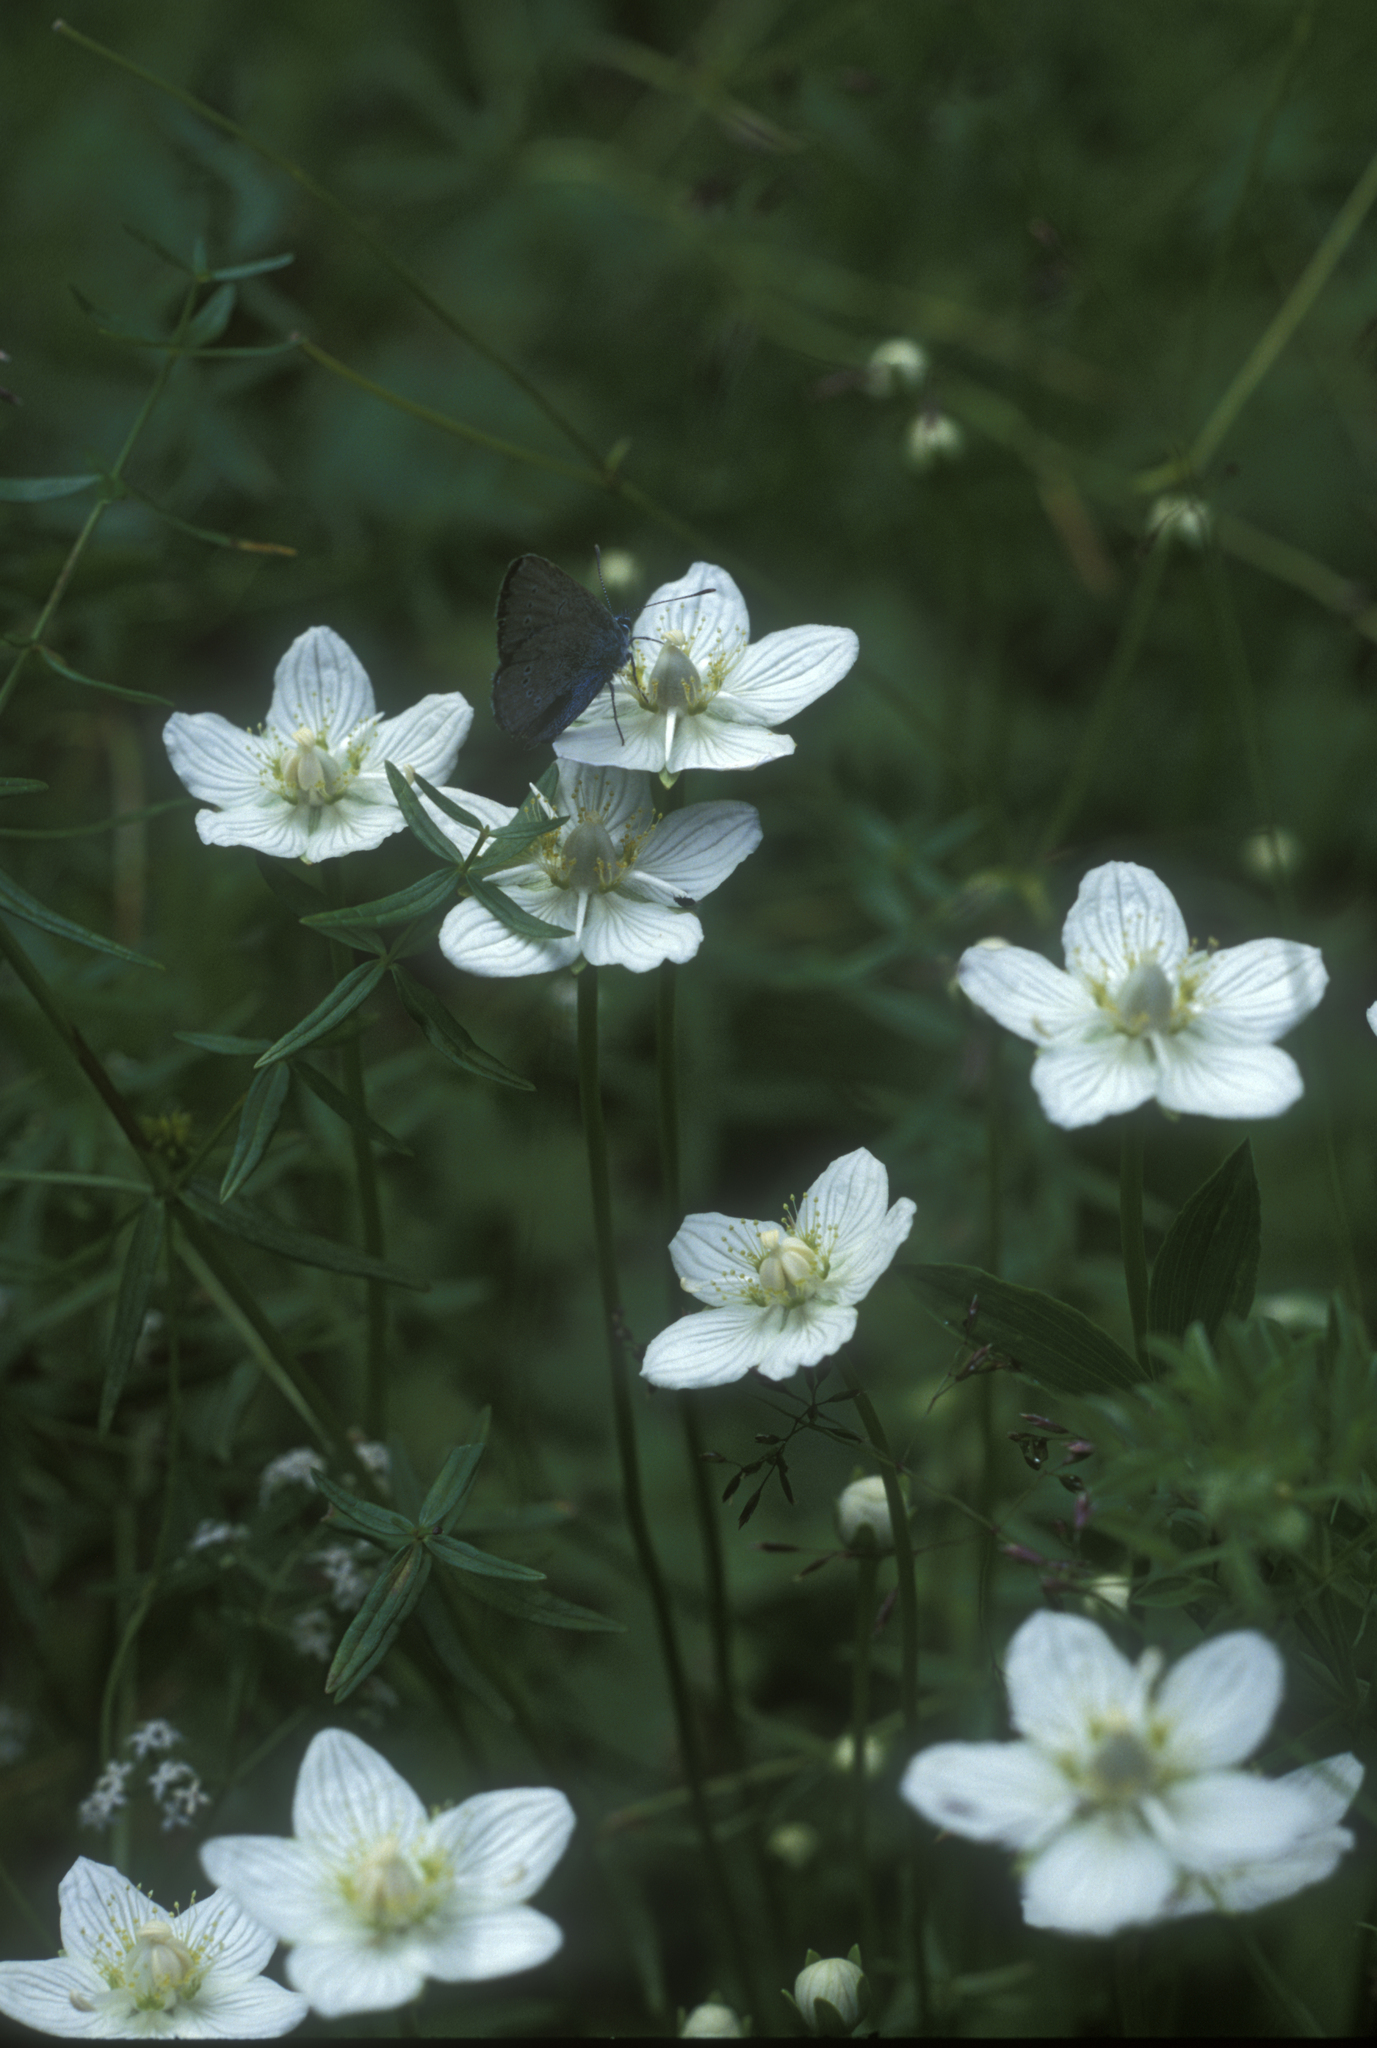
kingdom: Plantae
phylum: Tracheophyta
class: Magnoliopsida
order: Celastrales
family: Parnassiaceae
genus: Parnassia
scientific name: Parnassia palustris
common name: Grass-of-parnassus
